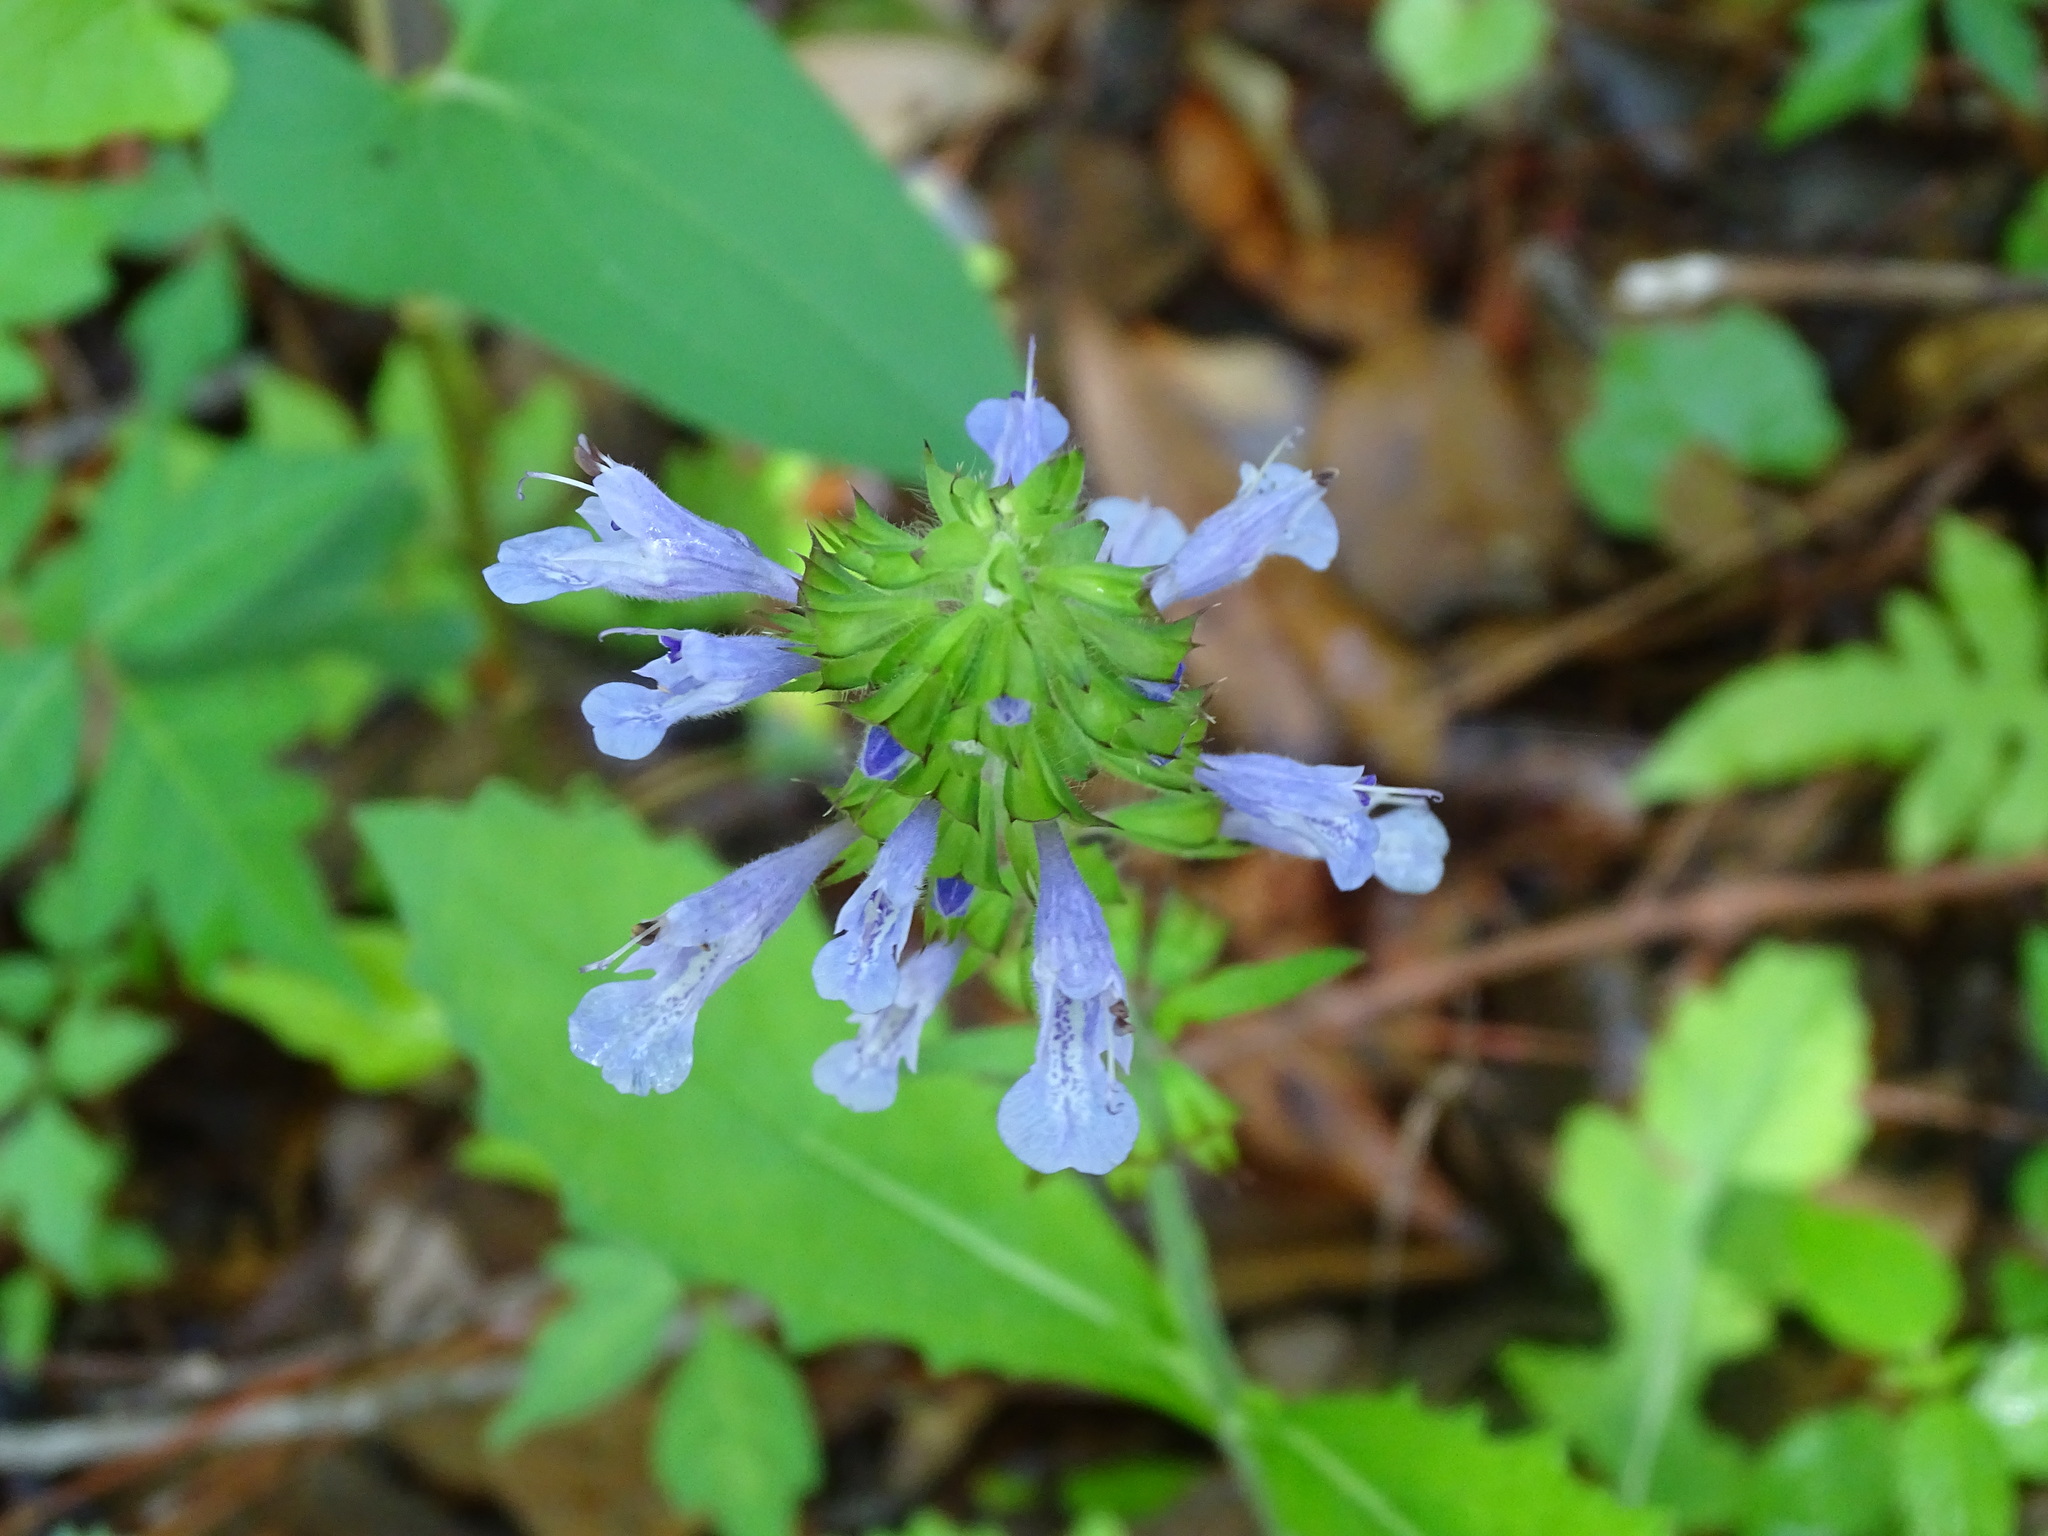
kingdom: Plantae
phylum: Tracheophyta
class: Magnoliopsida
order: Lamiales
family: Lamiaceae
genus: Salvia
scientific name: Salvia lyrata
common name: Cancerweed
